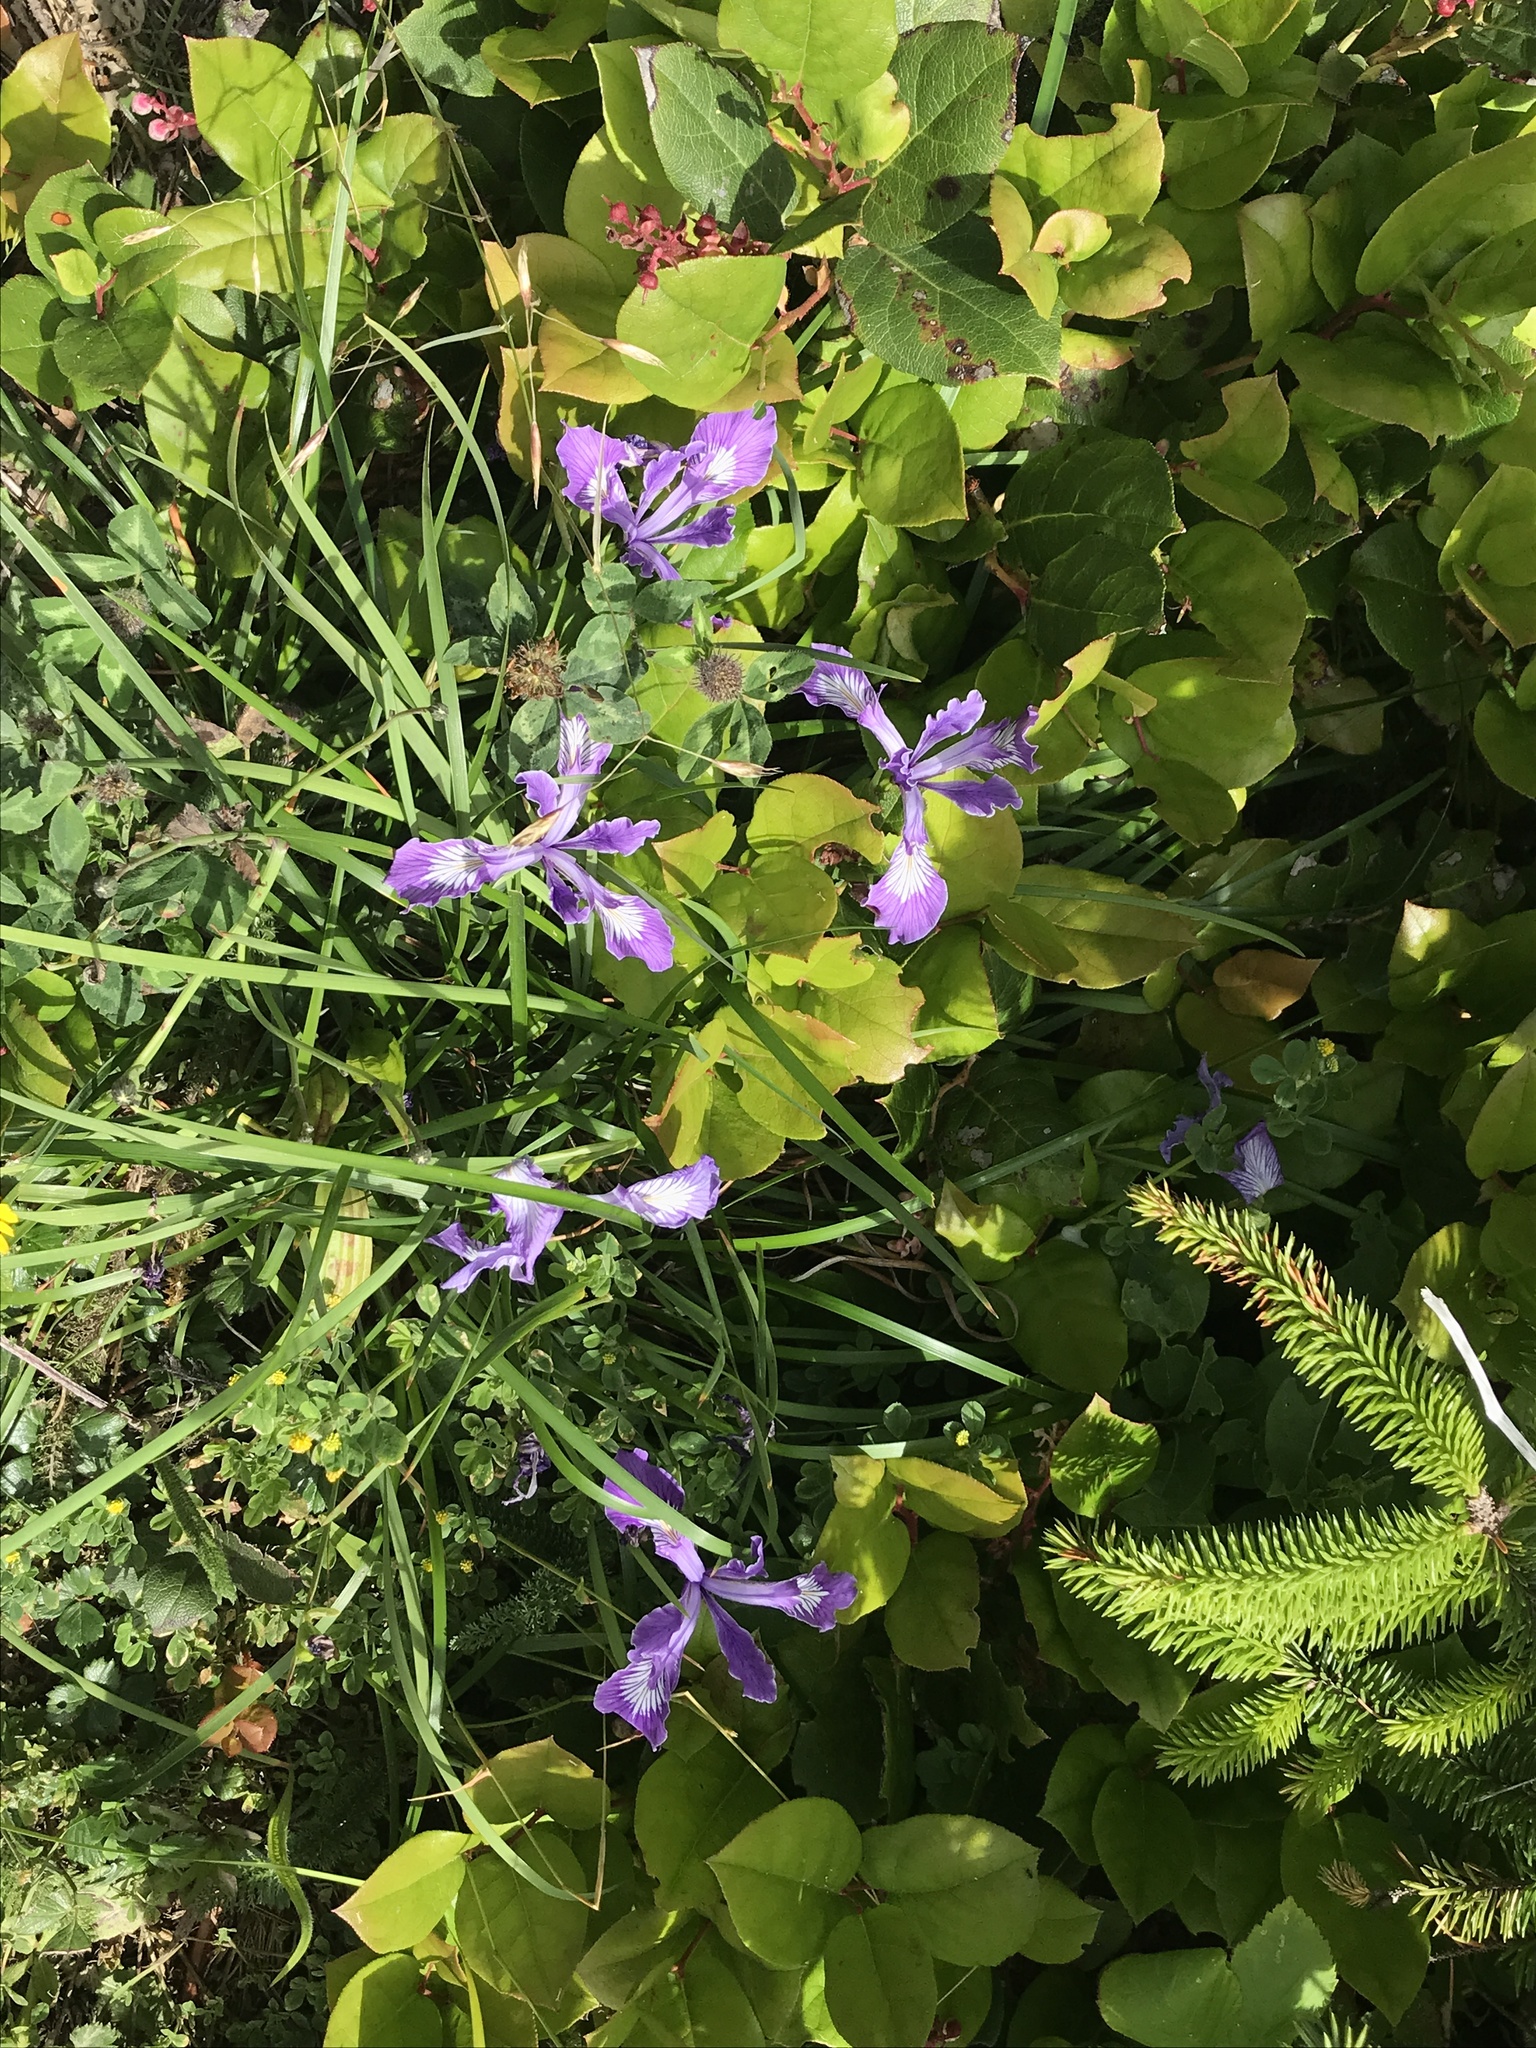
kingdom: Plantae
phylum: Tracheophyta
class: Liliopsida
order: Asparagales
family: Iridaceae
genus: Iris
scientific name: Iris tenax
